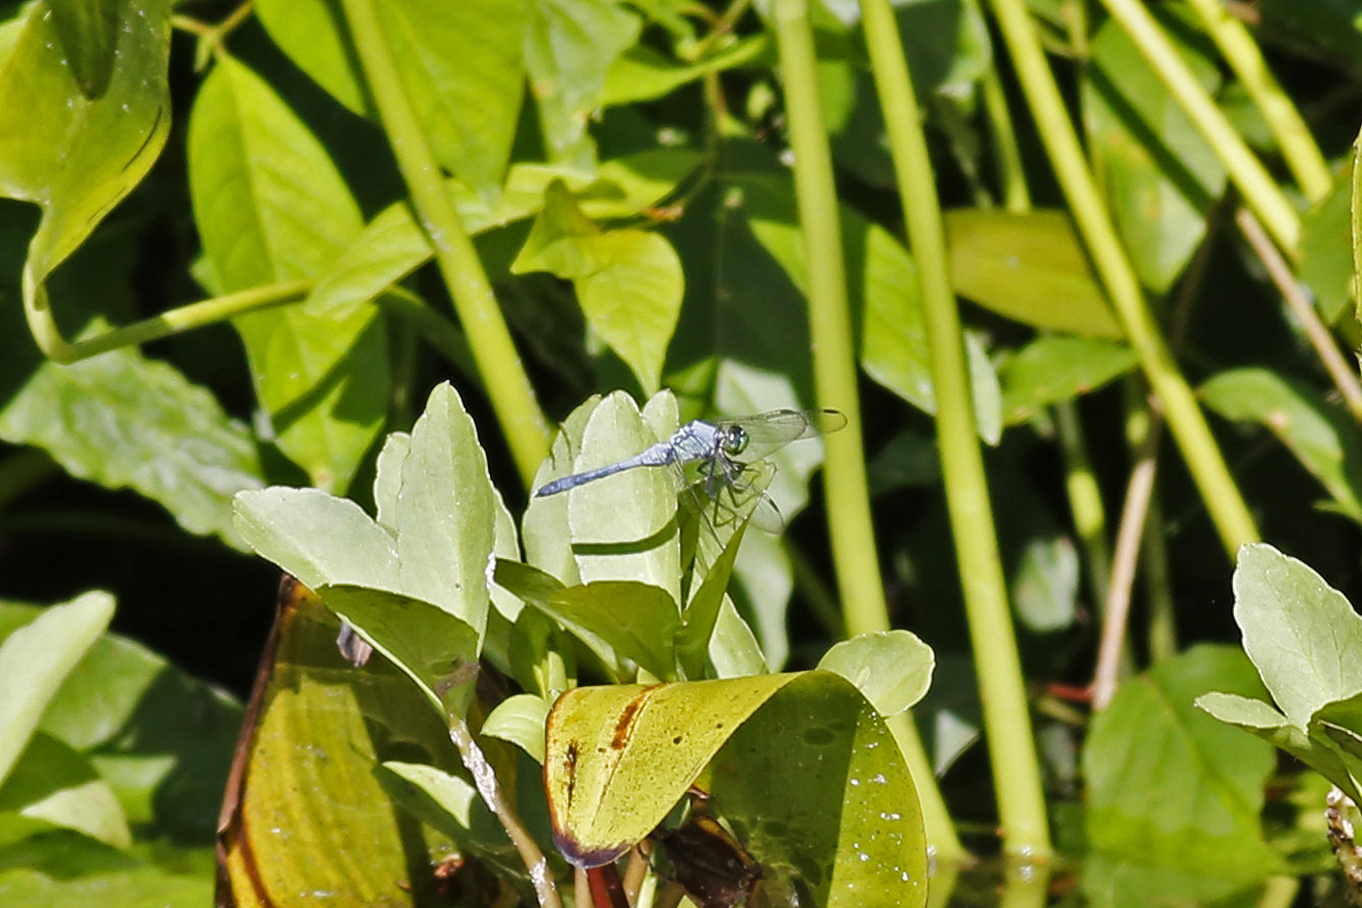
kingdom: Animalia
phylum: Arthropoda
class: Insecta
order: Odonata
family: Libellulidae
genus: Erythemis
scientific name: Erythemis simplicicollis
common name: Eastern pondhawk
